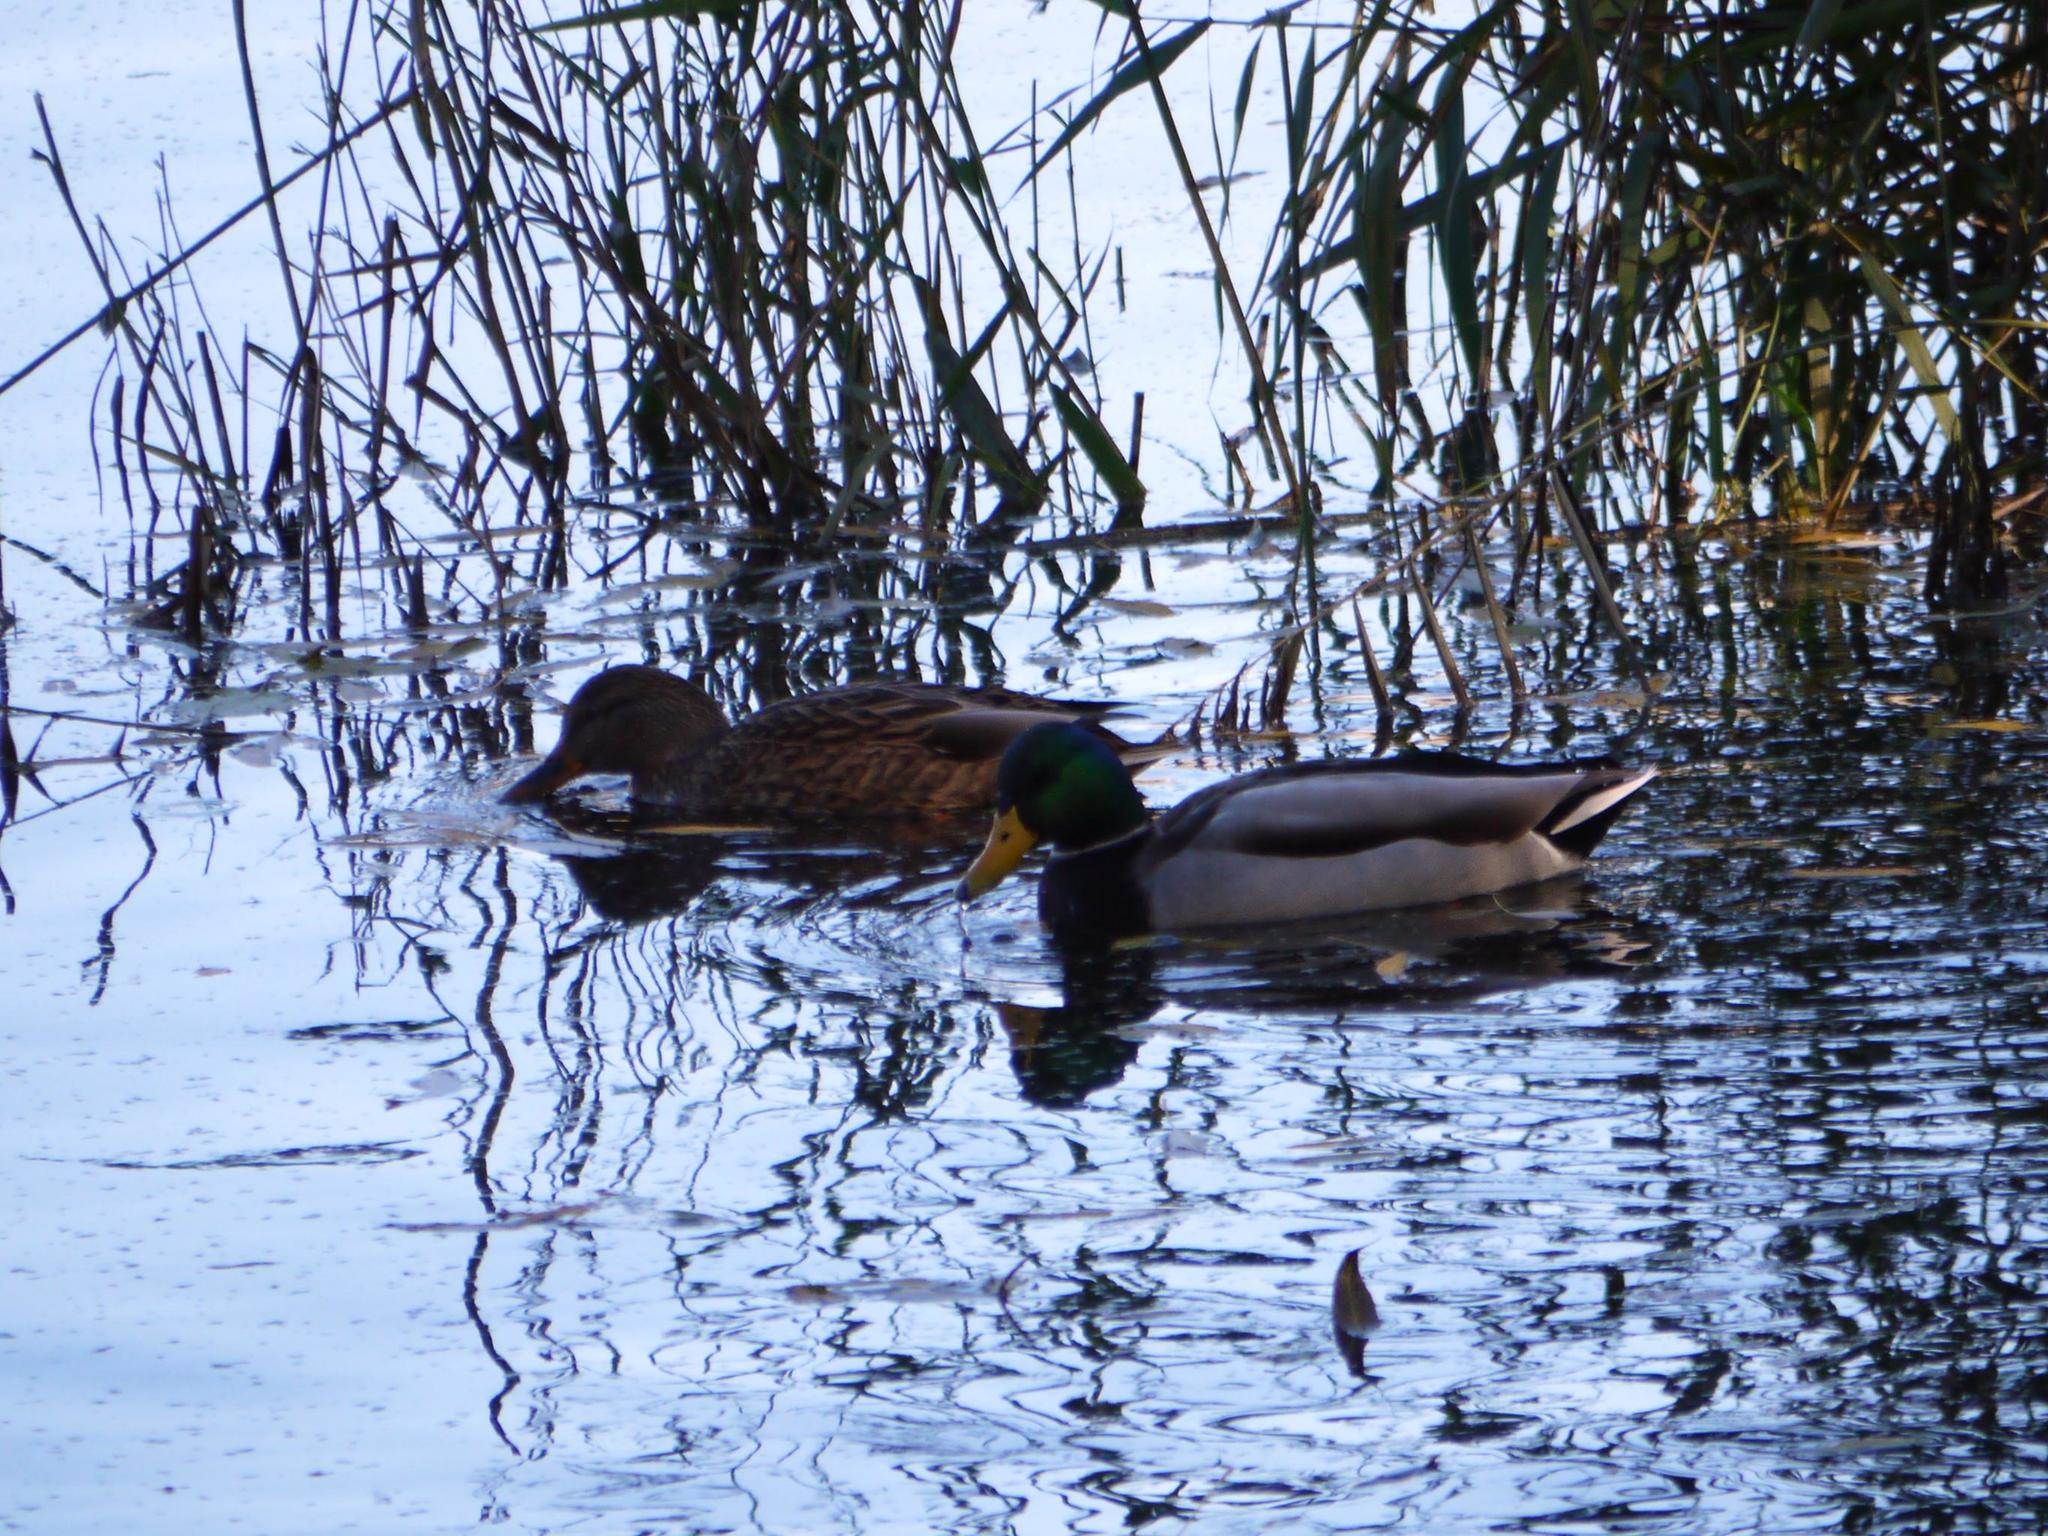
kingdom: Animalia
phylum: Chordata
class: Aves
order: Anseriformes
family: Anatidae
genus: Anas
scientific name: Anas platyrhynchos
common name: Mallard
